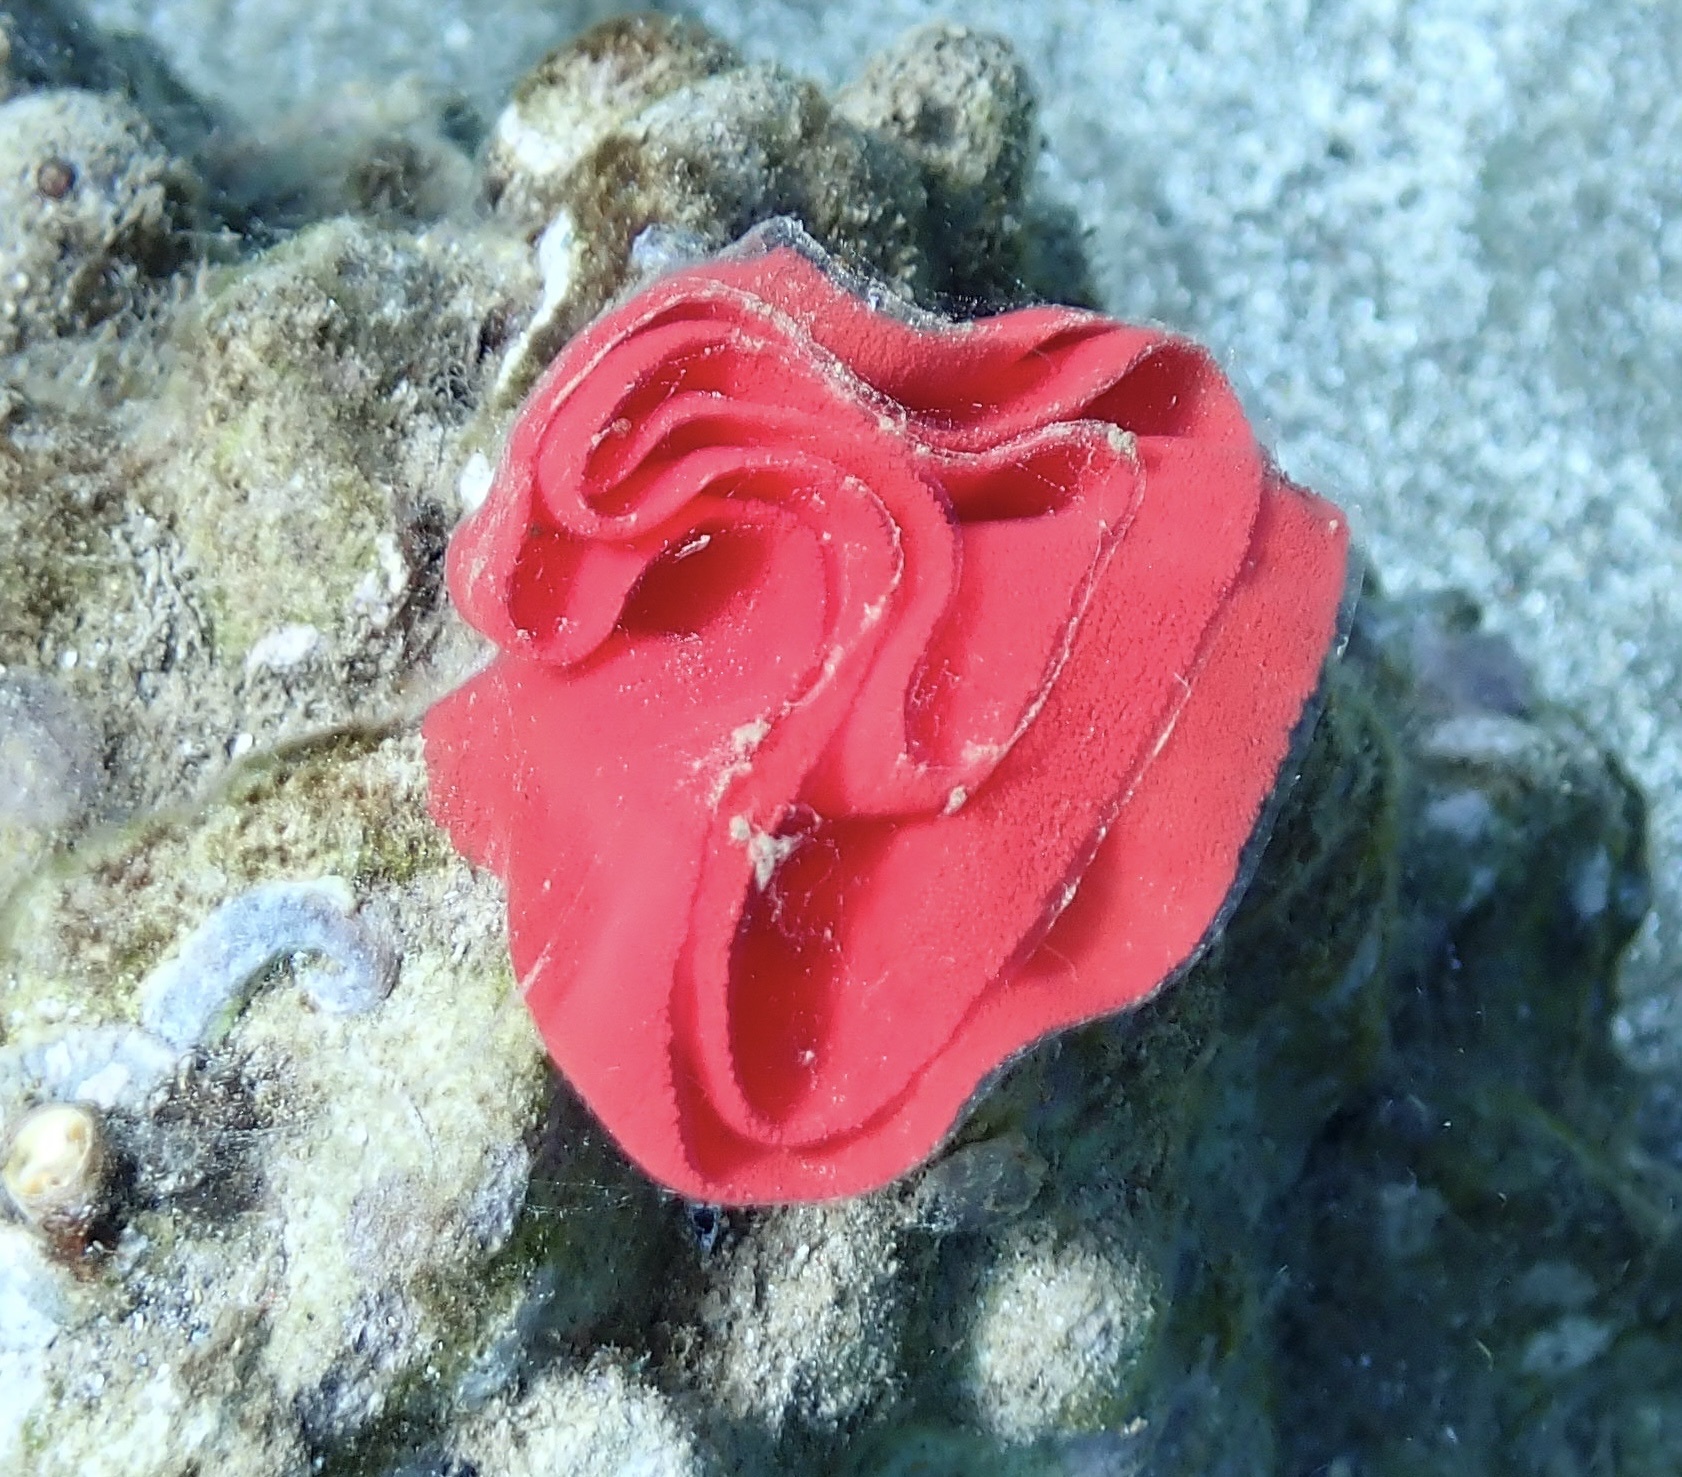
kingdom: Animalia
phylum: Mollusca
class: Gastropoda
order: Nudibranchia
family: Hexabranchidae
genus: Hexabranchus
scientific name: Hexabranchus sandwichensis
